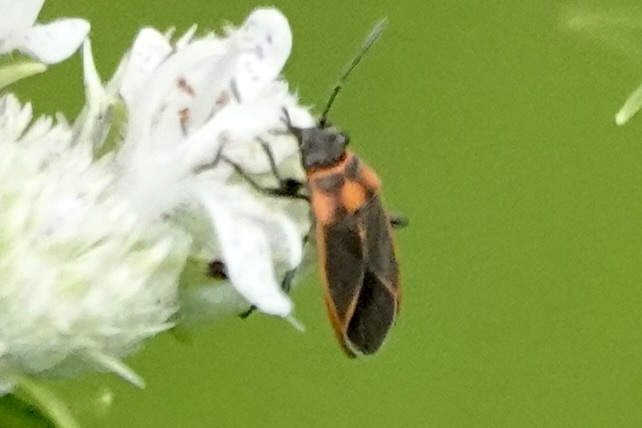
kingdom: Animalia
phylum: Arthropoda
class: Insecta
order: Hemiptera
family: Lygaeidae
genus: Ochrimnus
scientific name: Ochrimnus lineoloides
